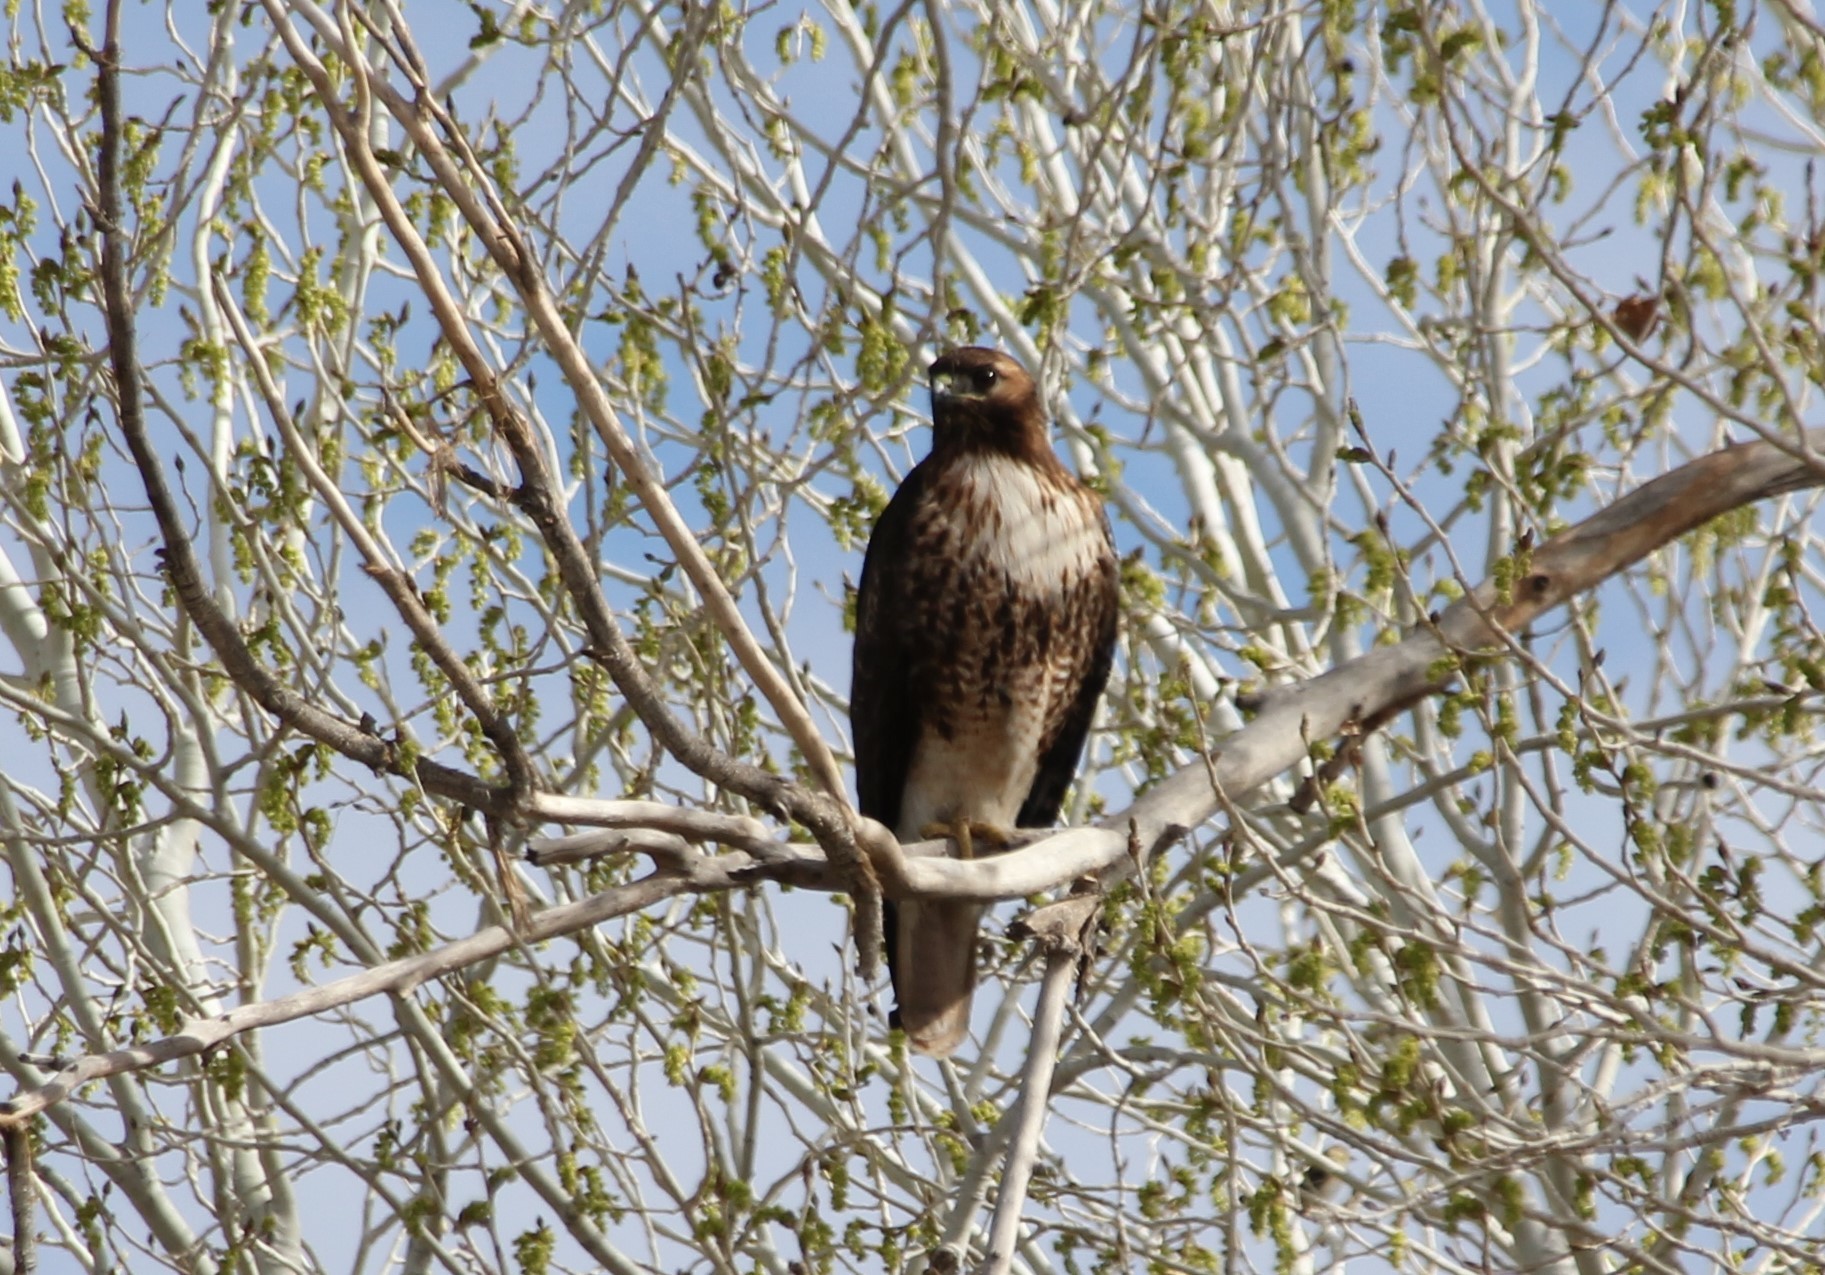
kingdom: Animalia
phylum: Chordata
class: Aves
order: Accipitriformes
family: Accipitridae
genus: Buteo
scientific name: Buteo jamaicensis
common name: Red-tailed hawk
